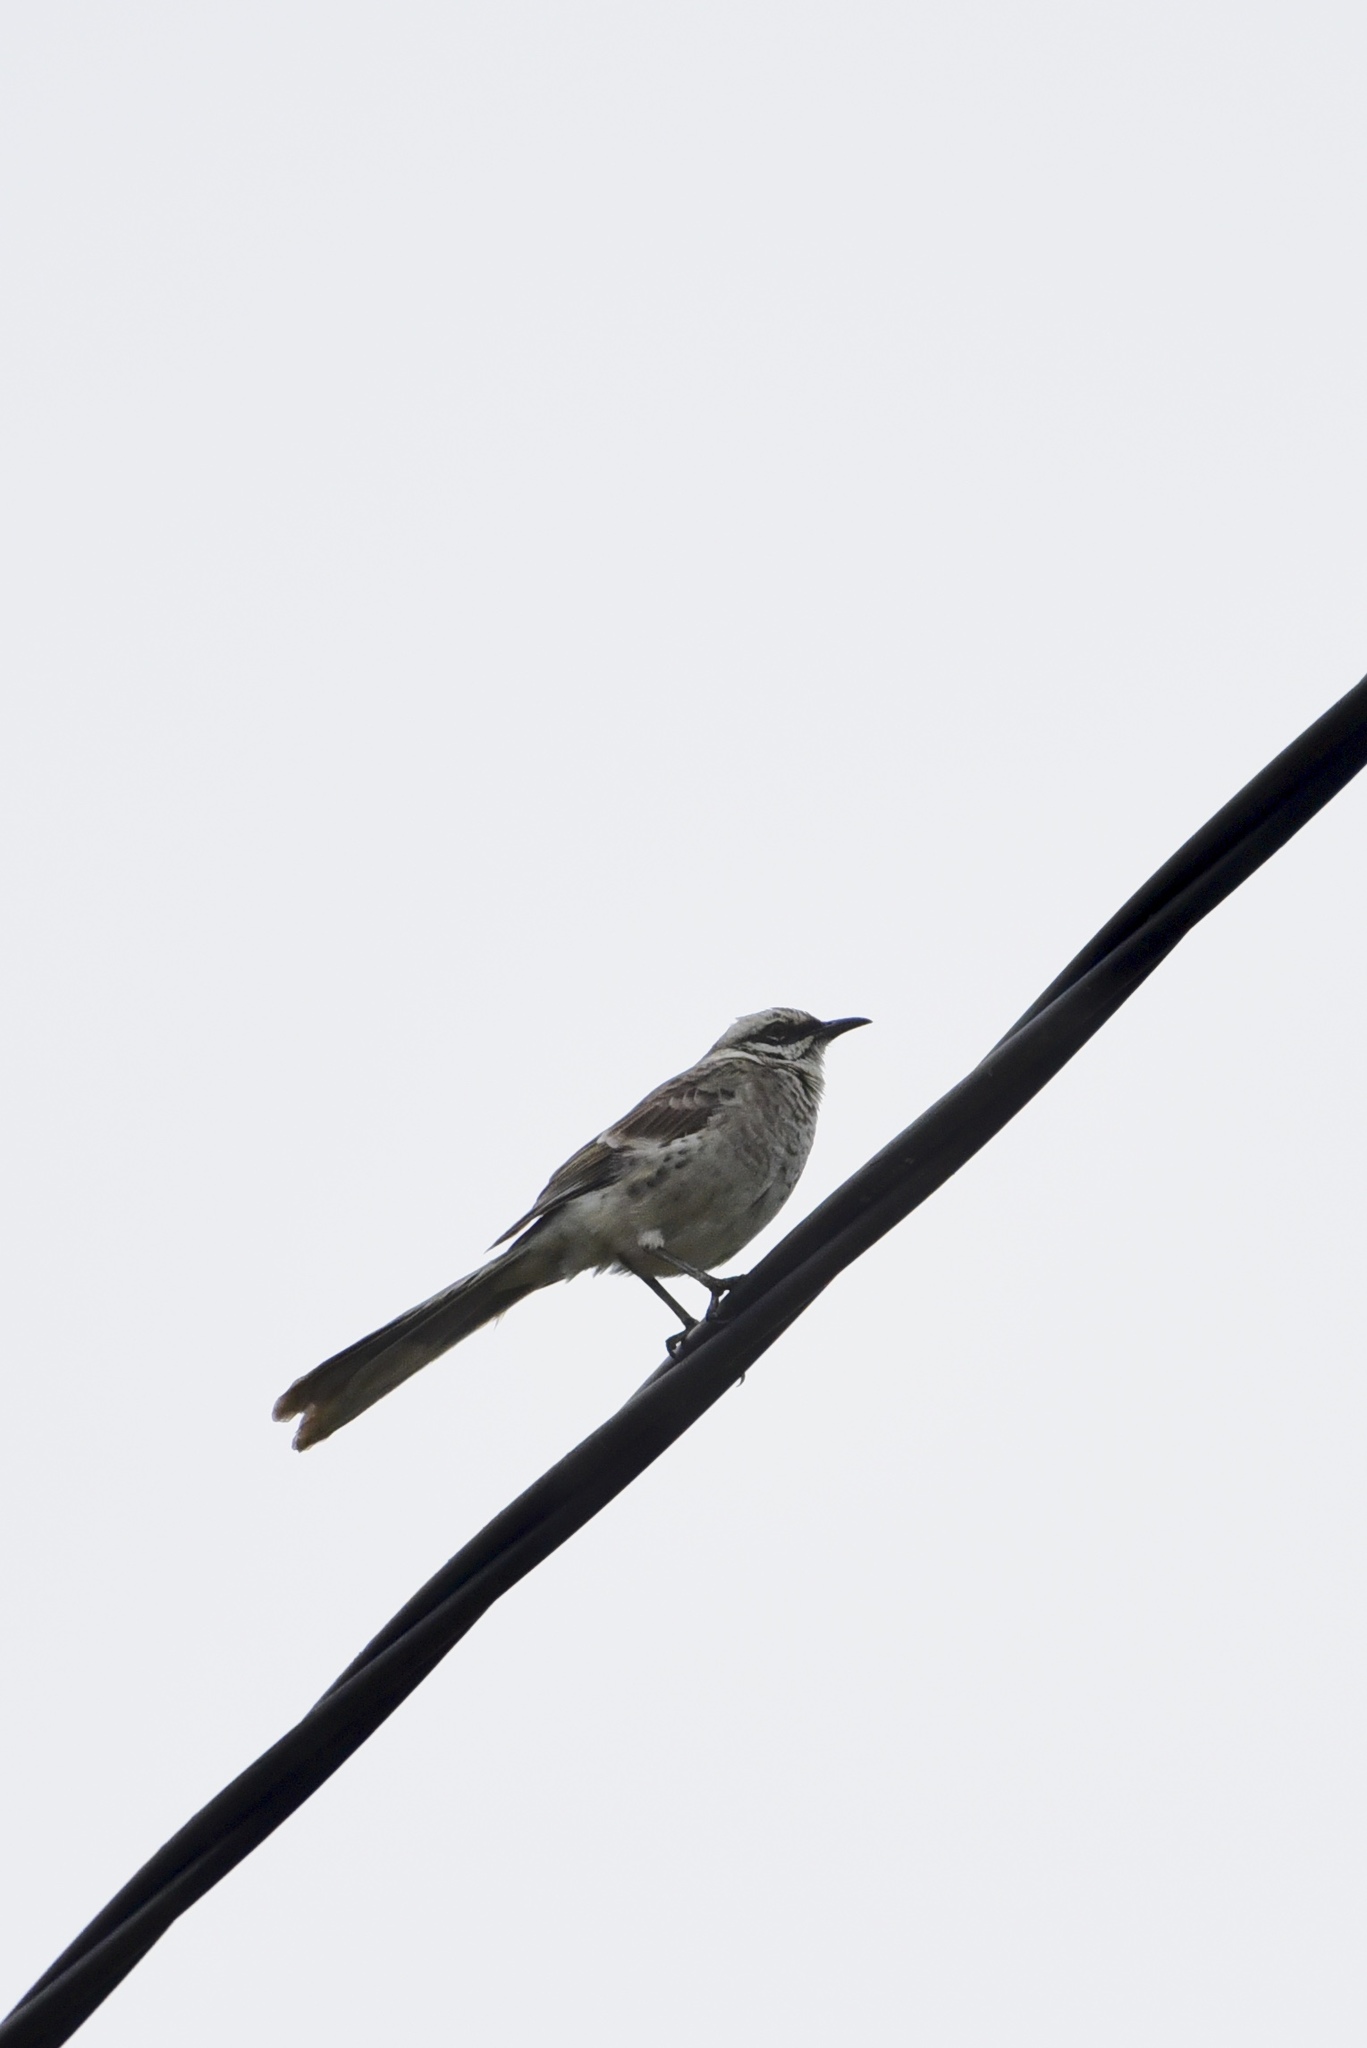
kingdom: Animalia
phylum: Chordata
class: Aves
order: Passeriformes
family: Mimidae
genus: Mimus
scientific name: Mimus longicaudatus
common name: Long-tailed mockingbird
